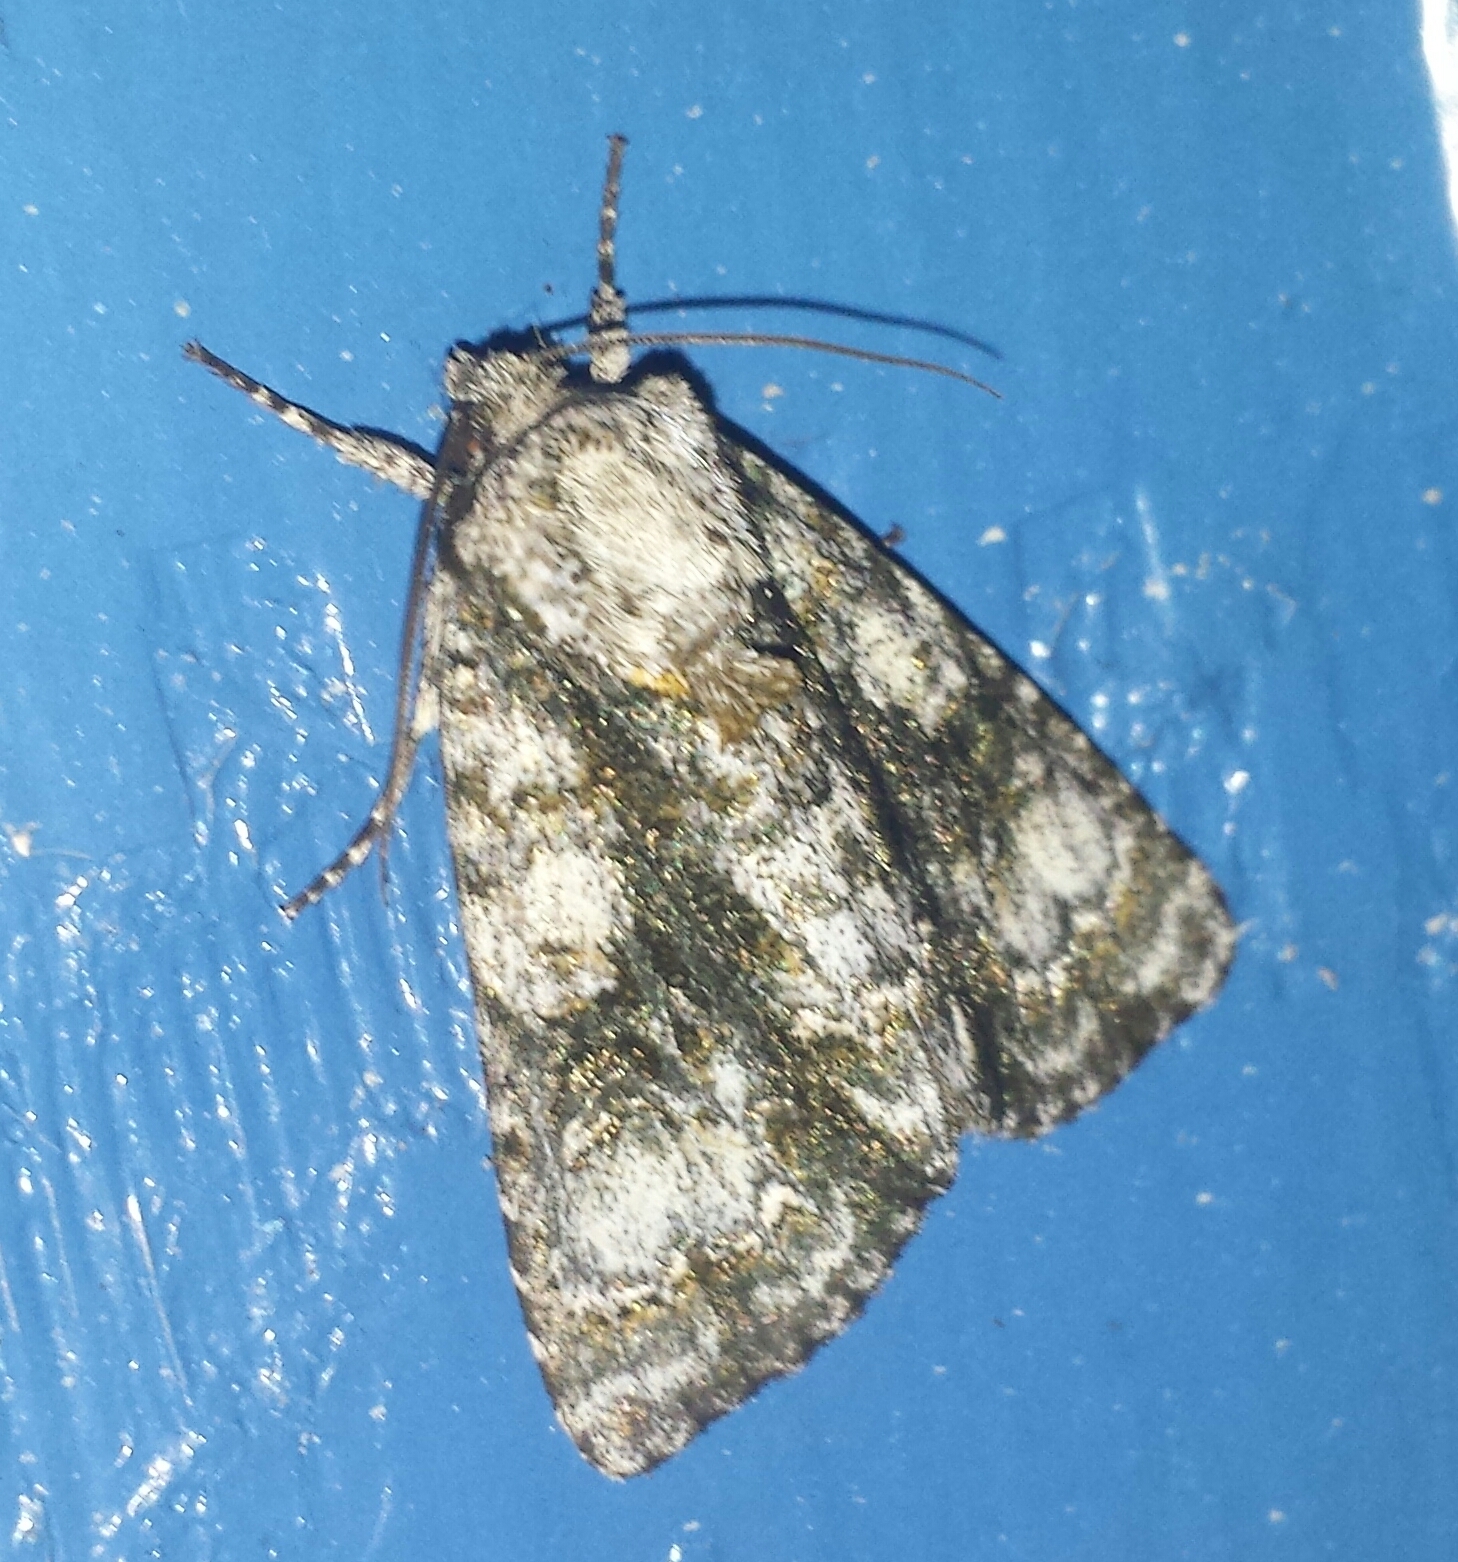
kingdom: Animalia
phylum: Arthropoda
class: Insecta
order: Lepidoptera
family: Noctuidae
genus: Acronicta
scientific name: Acronicta superans
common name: Splendid dagger
